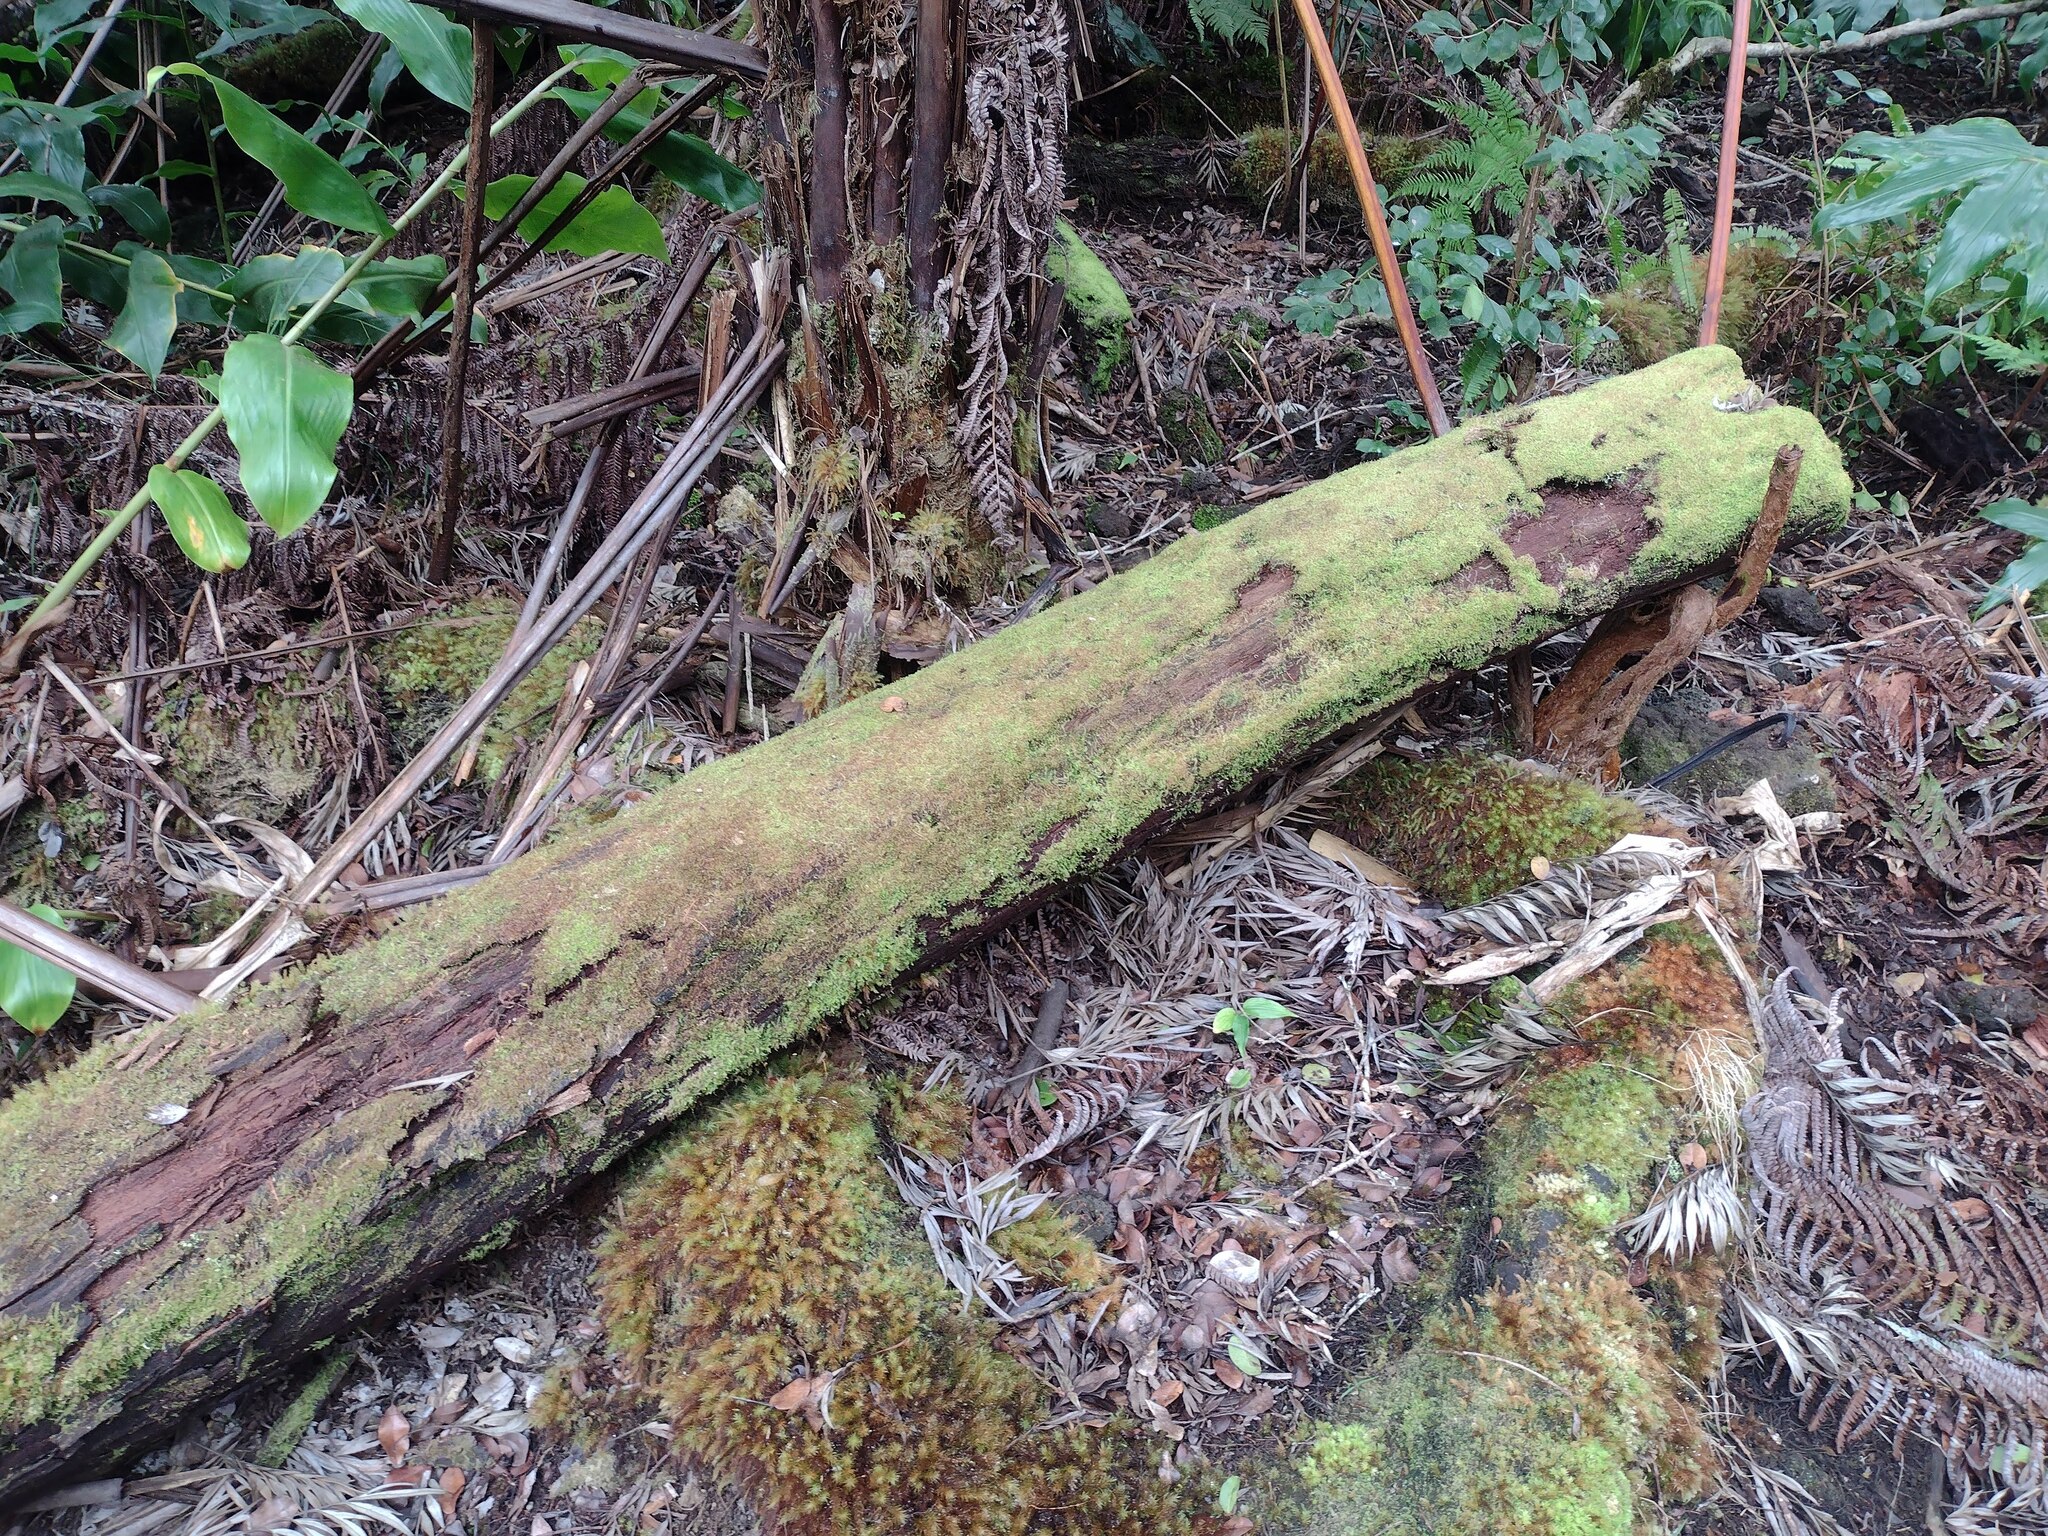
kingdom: Plantae
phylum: Marchantiophyta
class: Jungermanniopsida
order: Jungermanniales
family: Cephaloziaceae
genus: Odontoschisma
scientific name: Odontoschisma denudatum
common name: Matchstick flapwort
